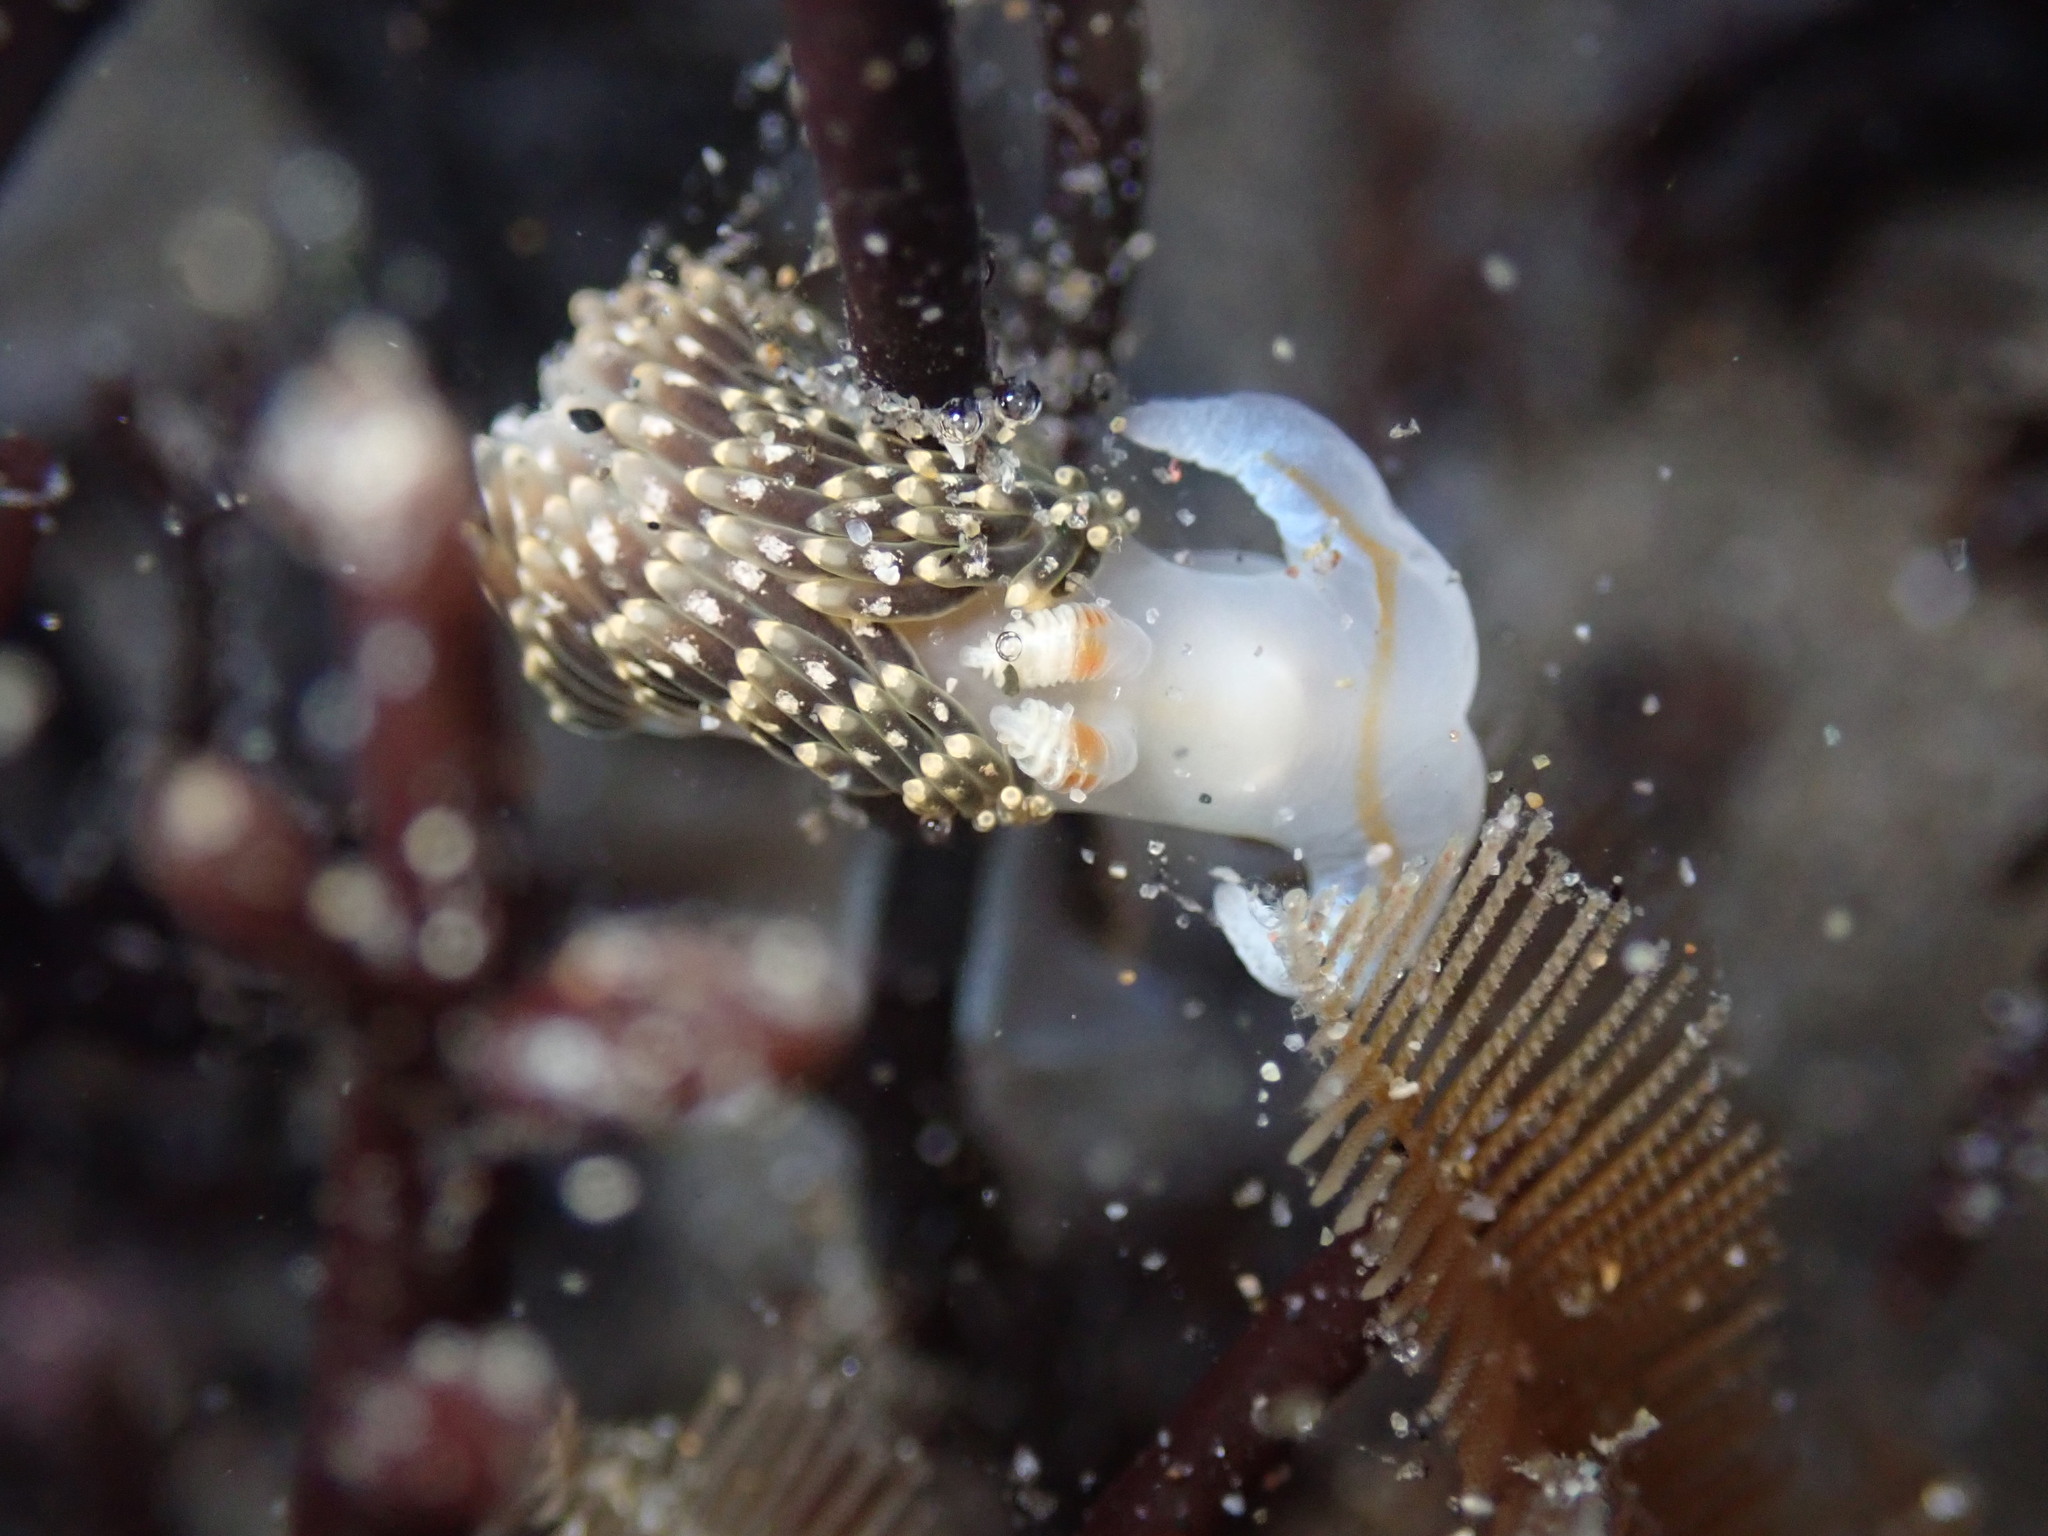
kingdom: Animalia
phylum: Mollusca
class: Gastropoda
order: Nudibranchia
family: Facelinidae
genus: Phidiana
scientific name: Phidiana hiltoni
